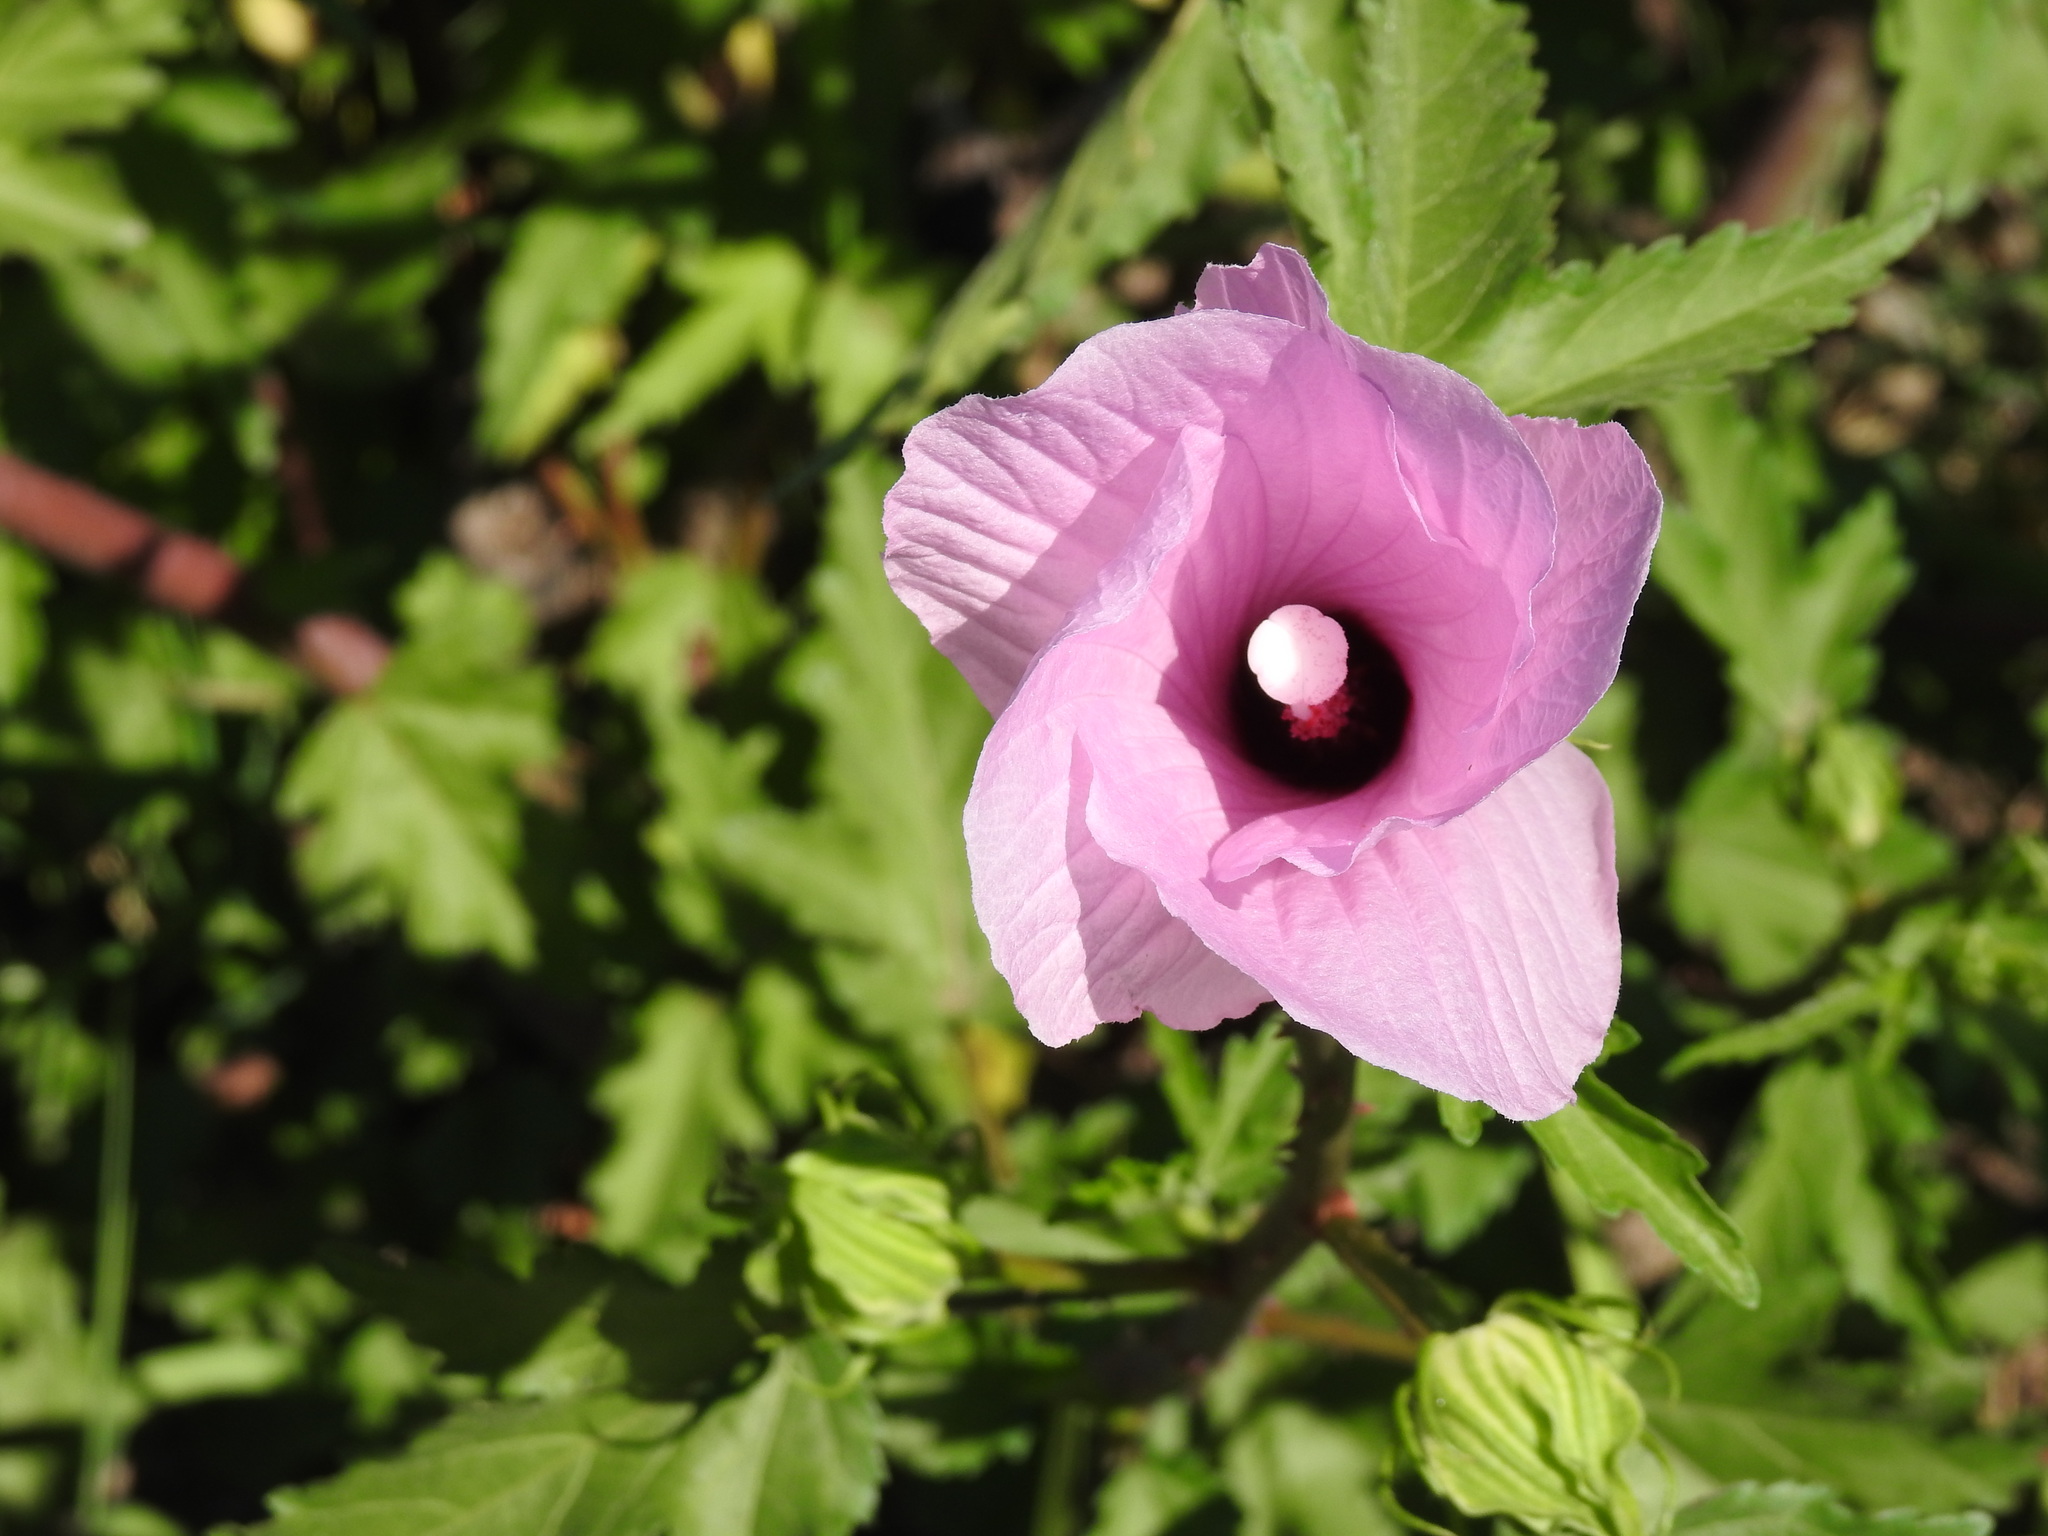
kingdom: Plantae
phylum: Tracheophyta
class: Magnoliopsida
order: Malvales
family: Malvaceae
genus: Hibiscus
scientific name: Hibiscus striatus
